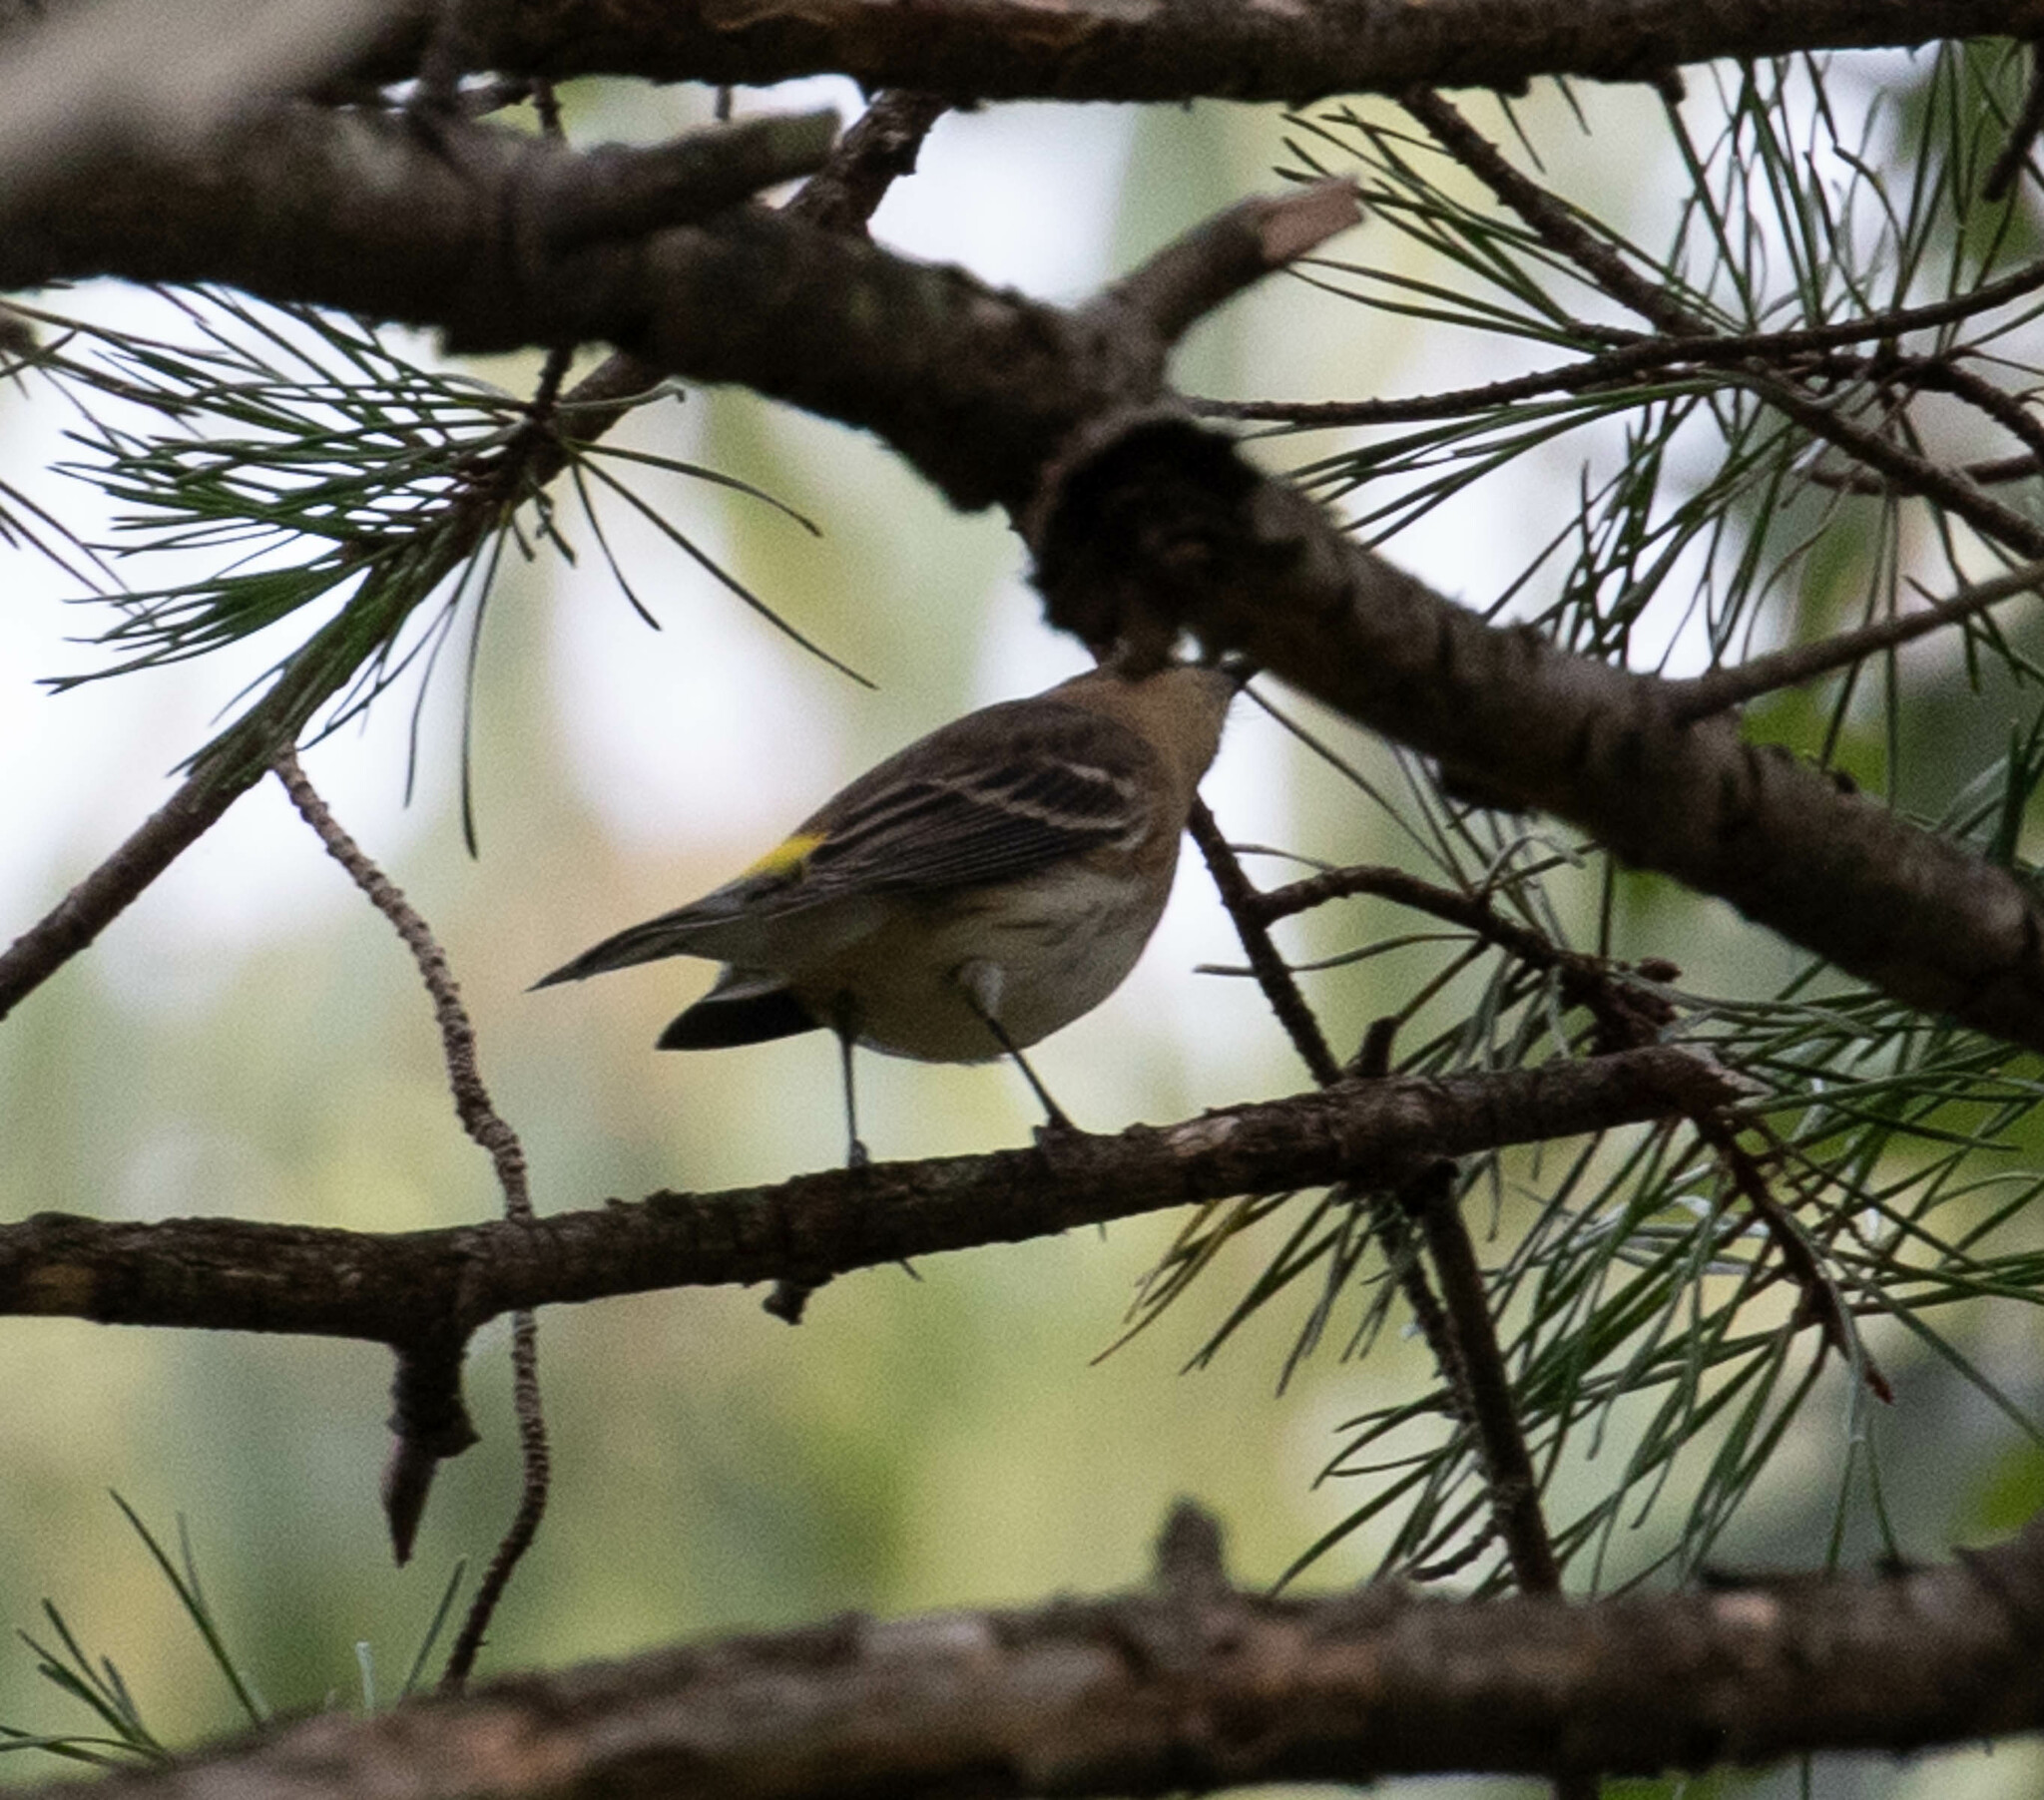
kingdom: Animalia
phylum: Chordata
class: Aves
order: Passeriformes
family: Parulidae
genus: Setophaga
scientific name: Setophaga coronata
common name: Myrtle warbler
